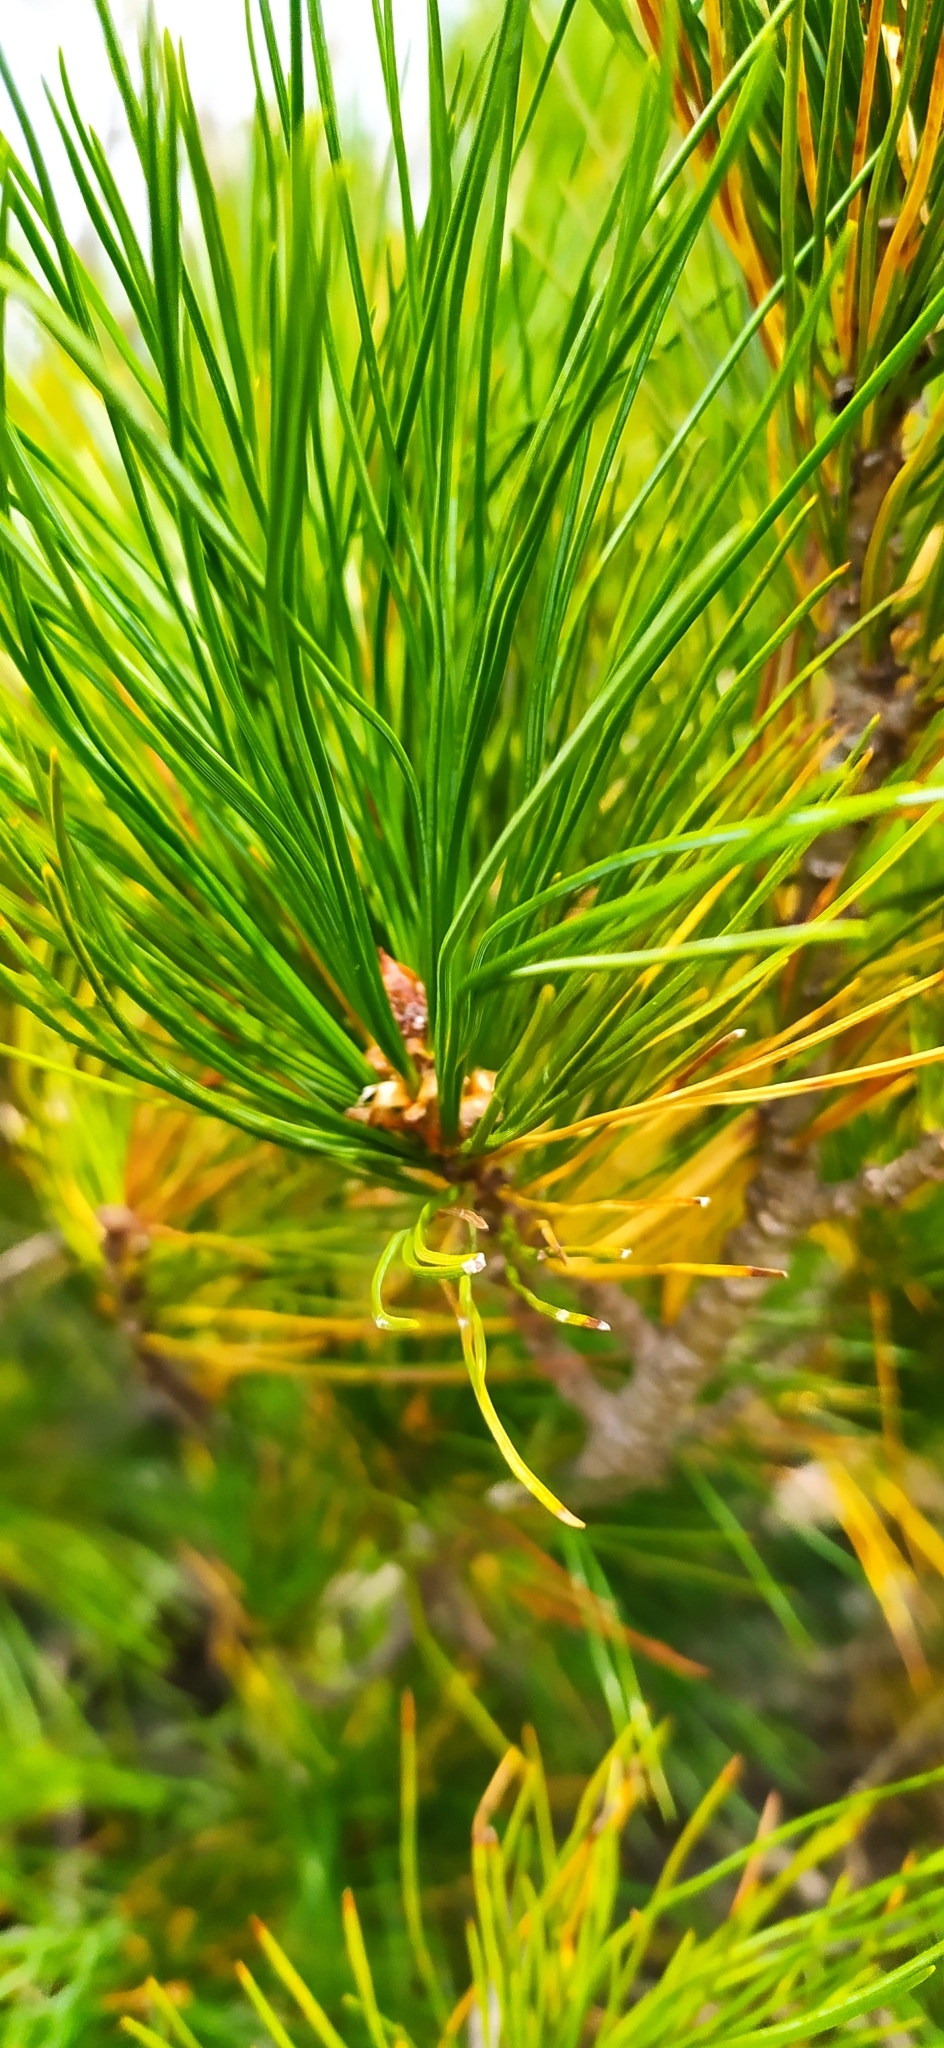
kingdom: Plantae
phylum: Tracheophyta
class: Pinopsida
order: Pinales
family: Pinaceae
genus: Pinus
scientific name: Pinus sibirica
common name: Siberian pine
